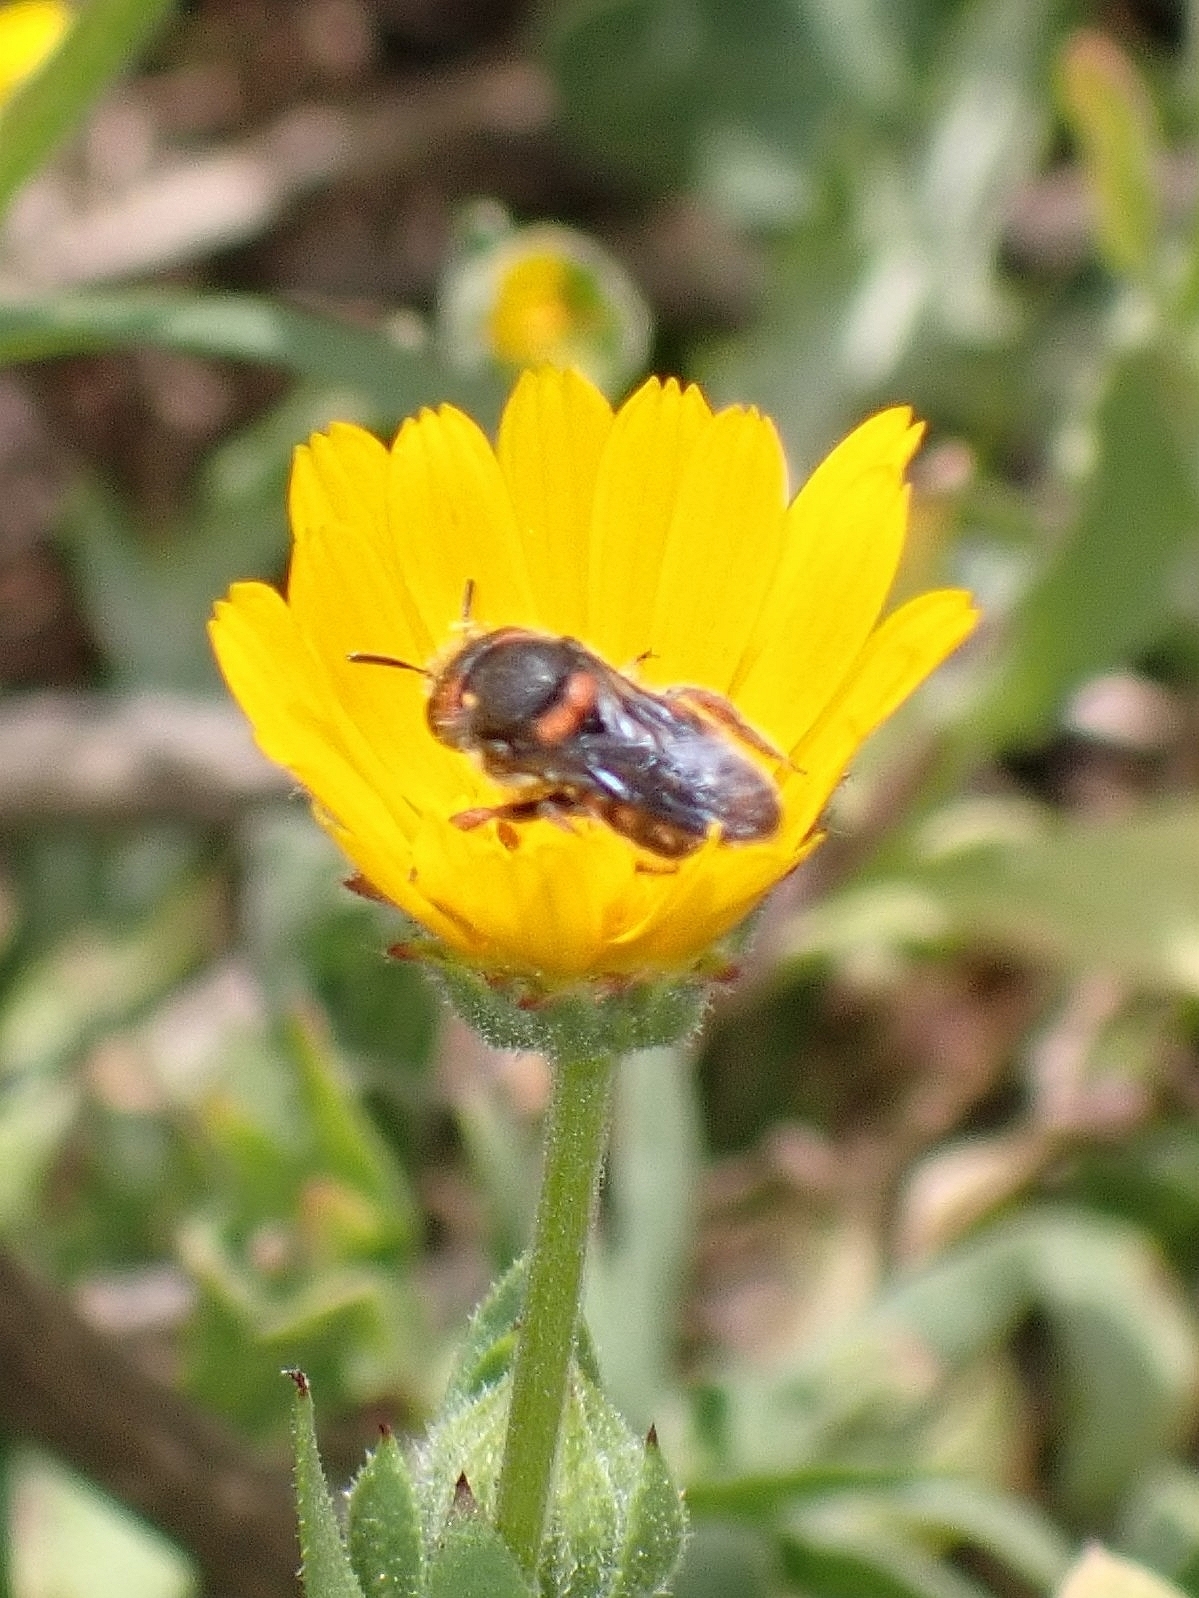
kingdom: Animalia
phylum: Arthropoda
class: Insecta
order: Hymenoptera
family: Megachilidae
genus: Pseudoanthidium
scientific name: Pseudoanthidium canariense
